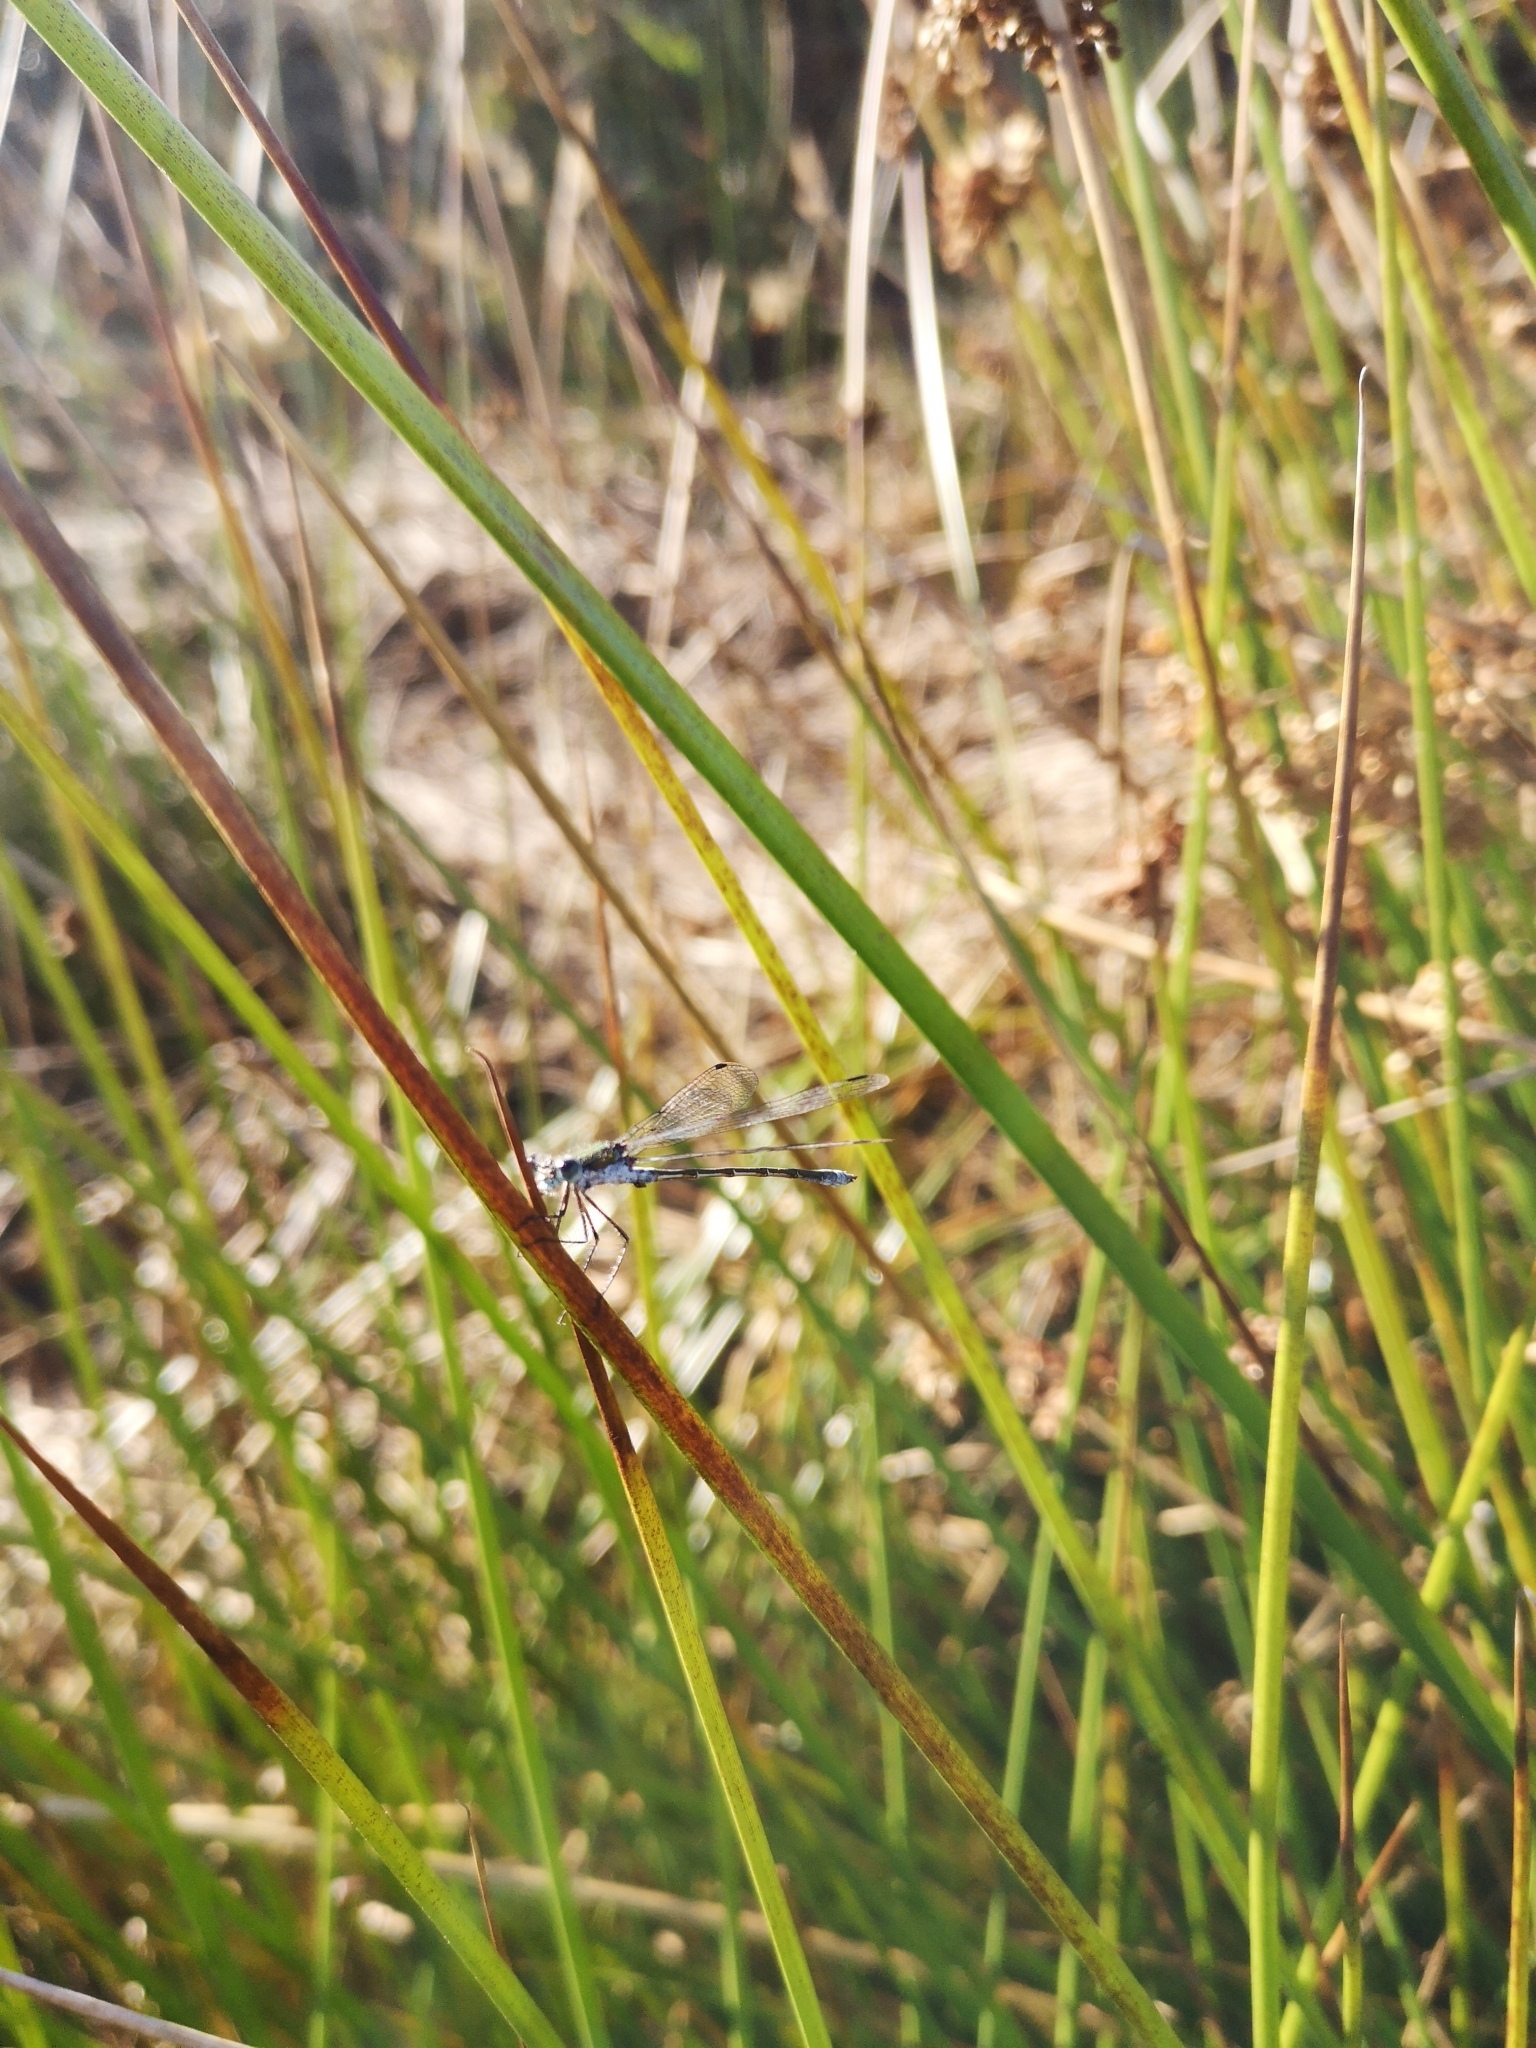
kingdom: Animalia
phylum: Arthropoda
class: Insecta
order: Odonata
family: Lestidae
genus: Lestes
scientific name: Lestes sponsa
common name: Common spreadwing
